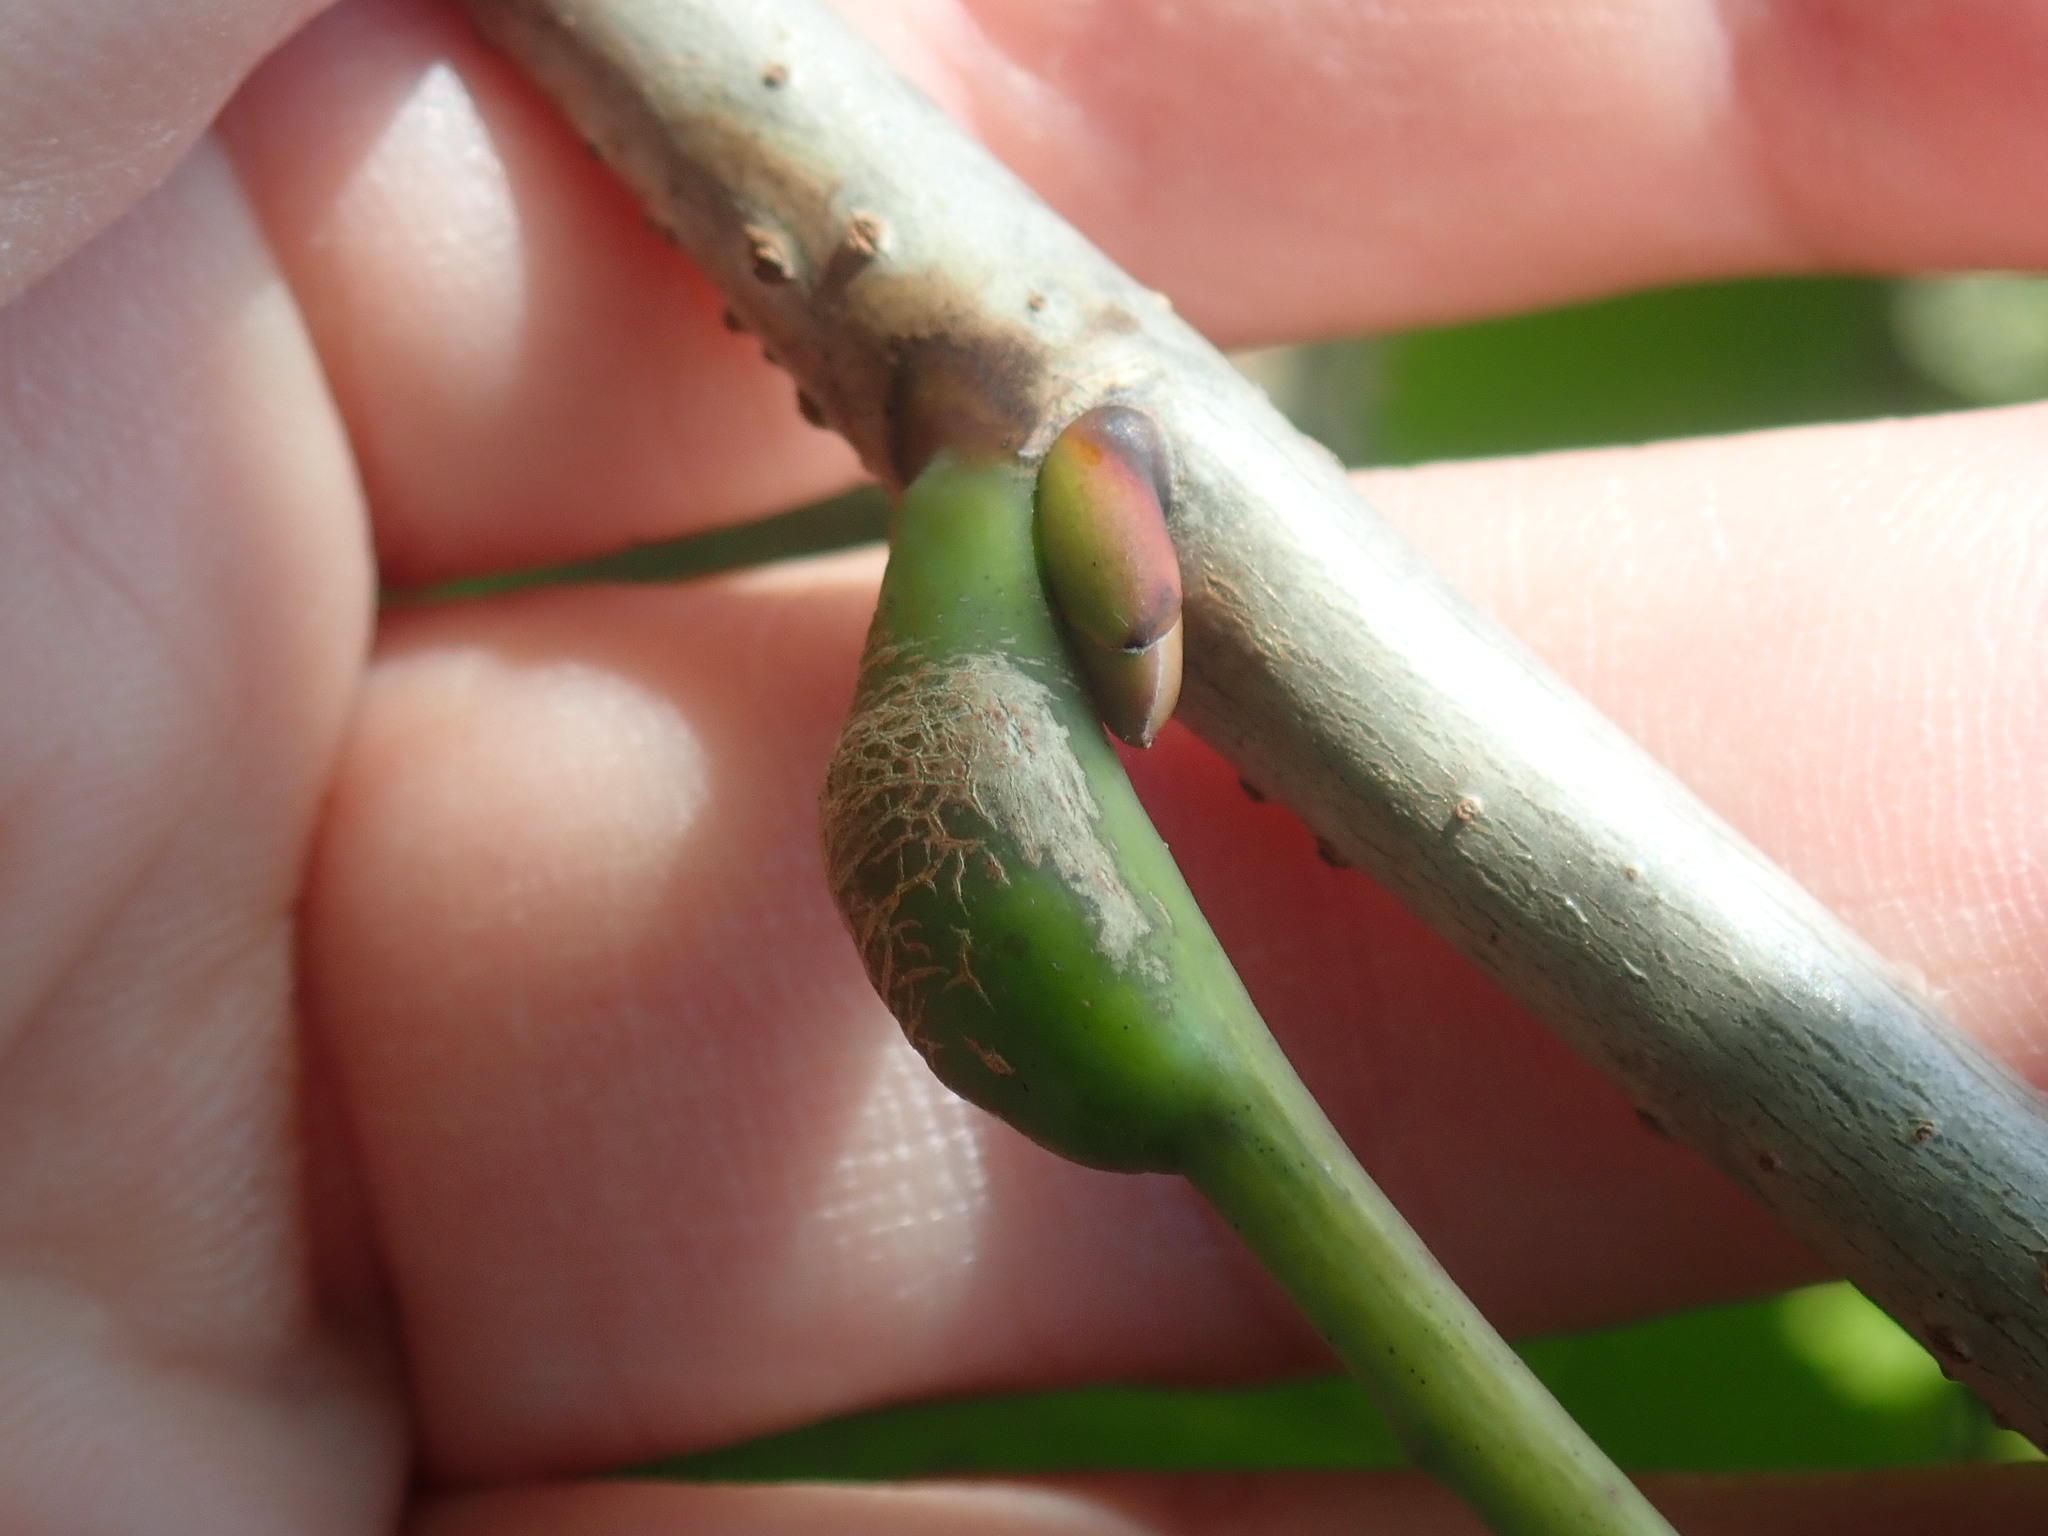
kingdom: Animalia
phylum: Arthropoda
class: Insecta
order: Diptera
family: Cecidomyiidae
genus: Contarinia
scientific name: Contarinia citrina
